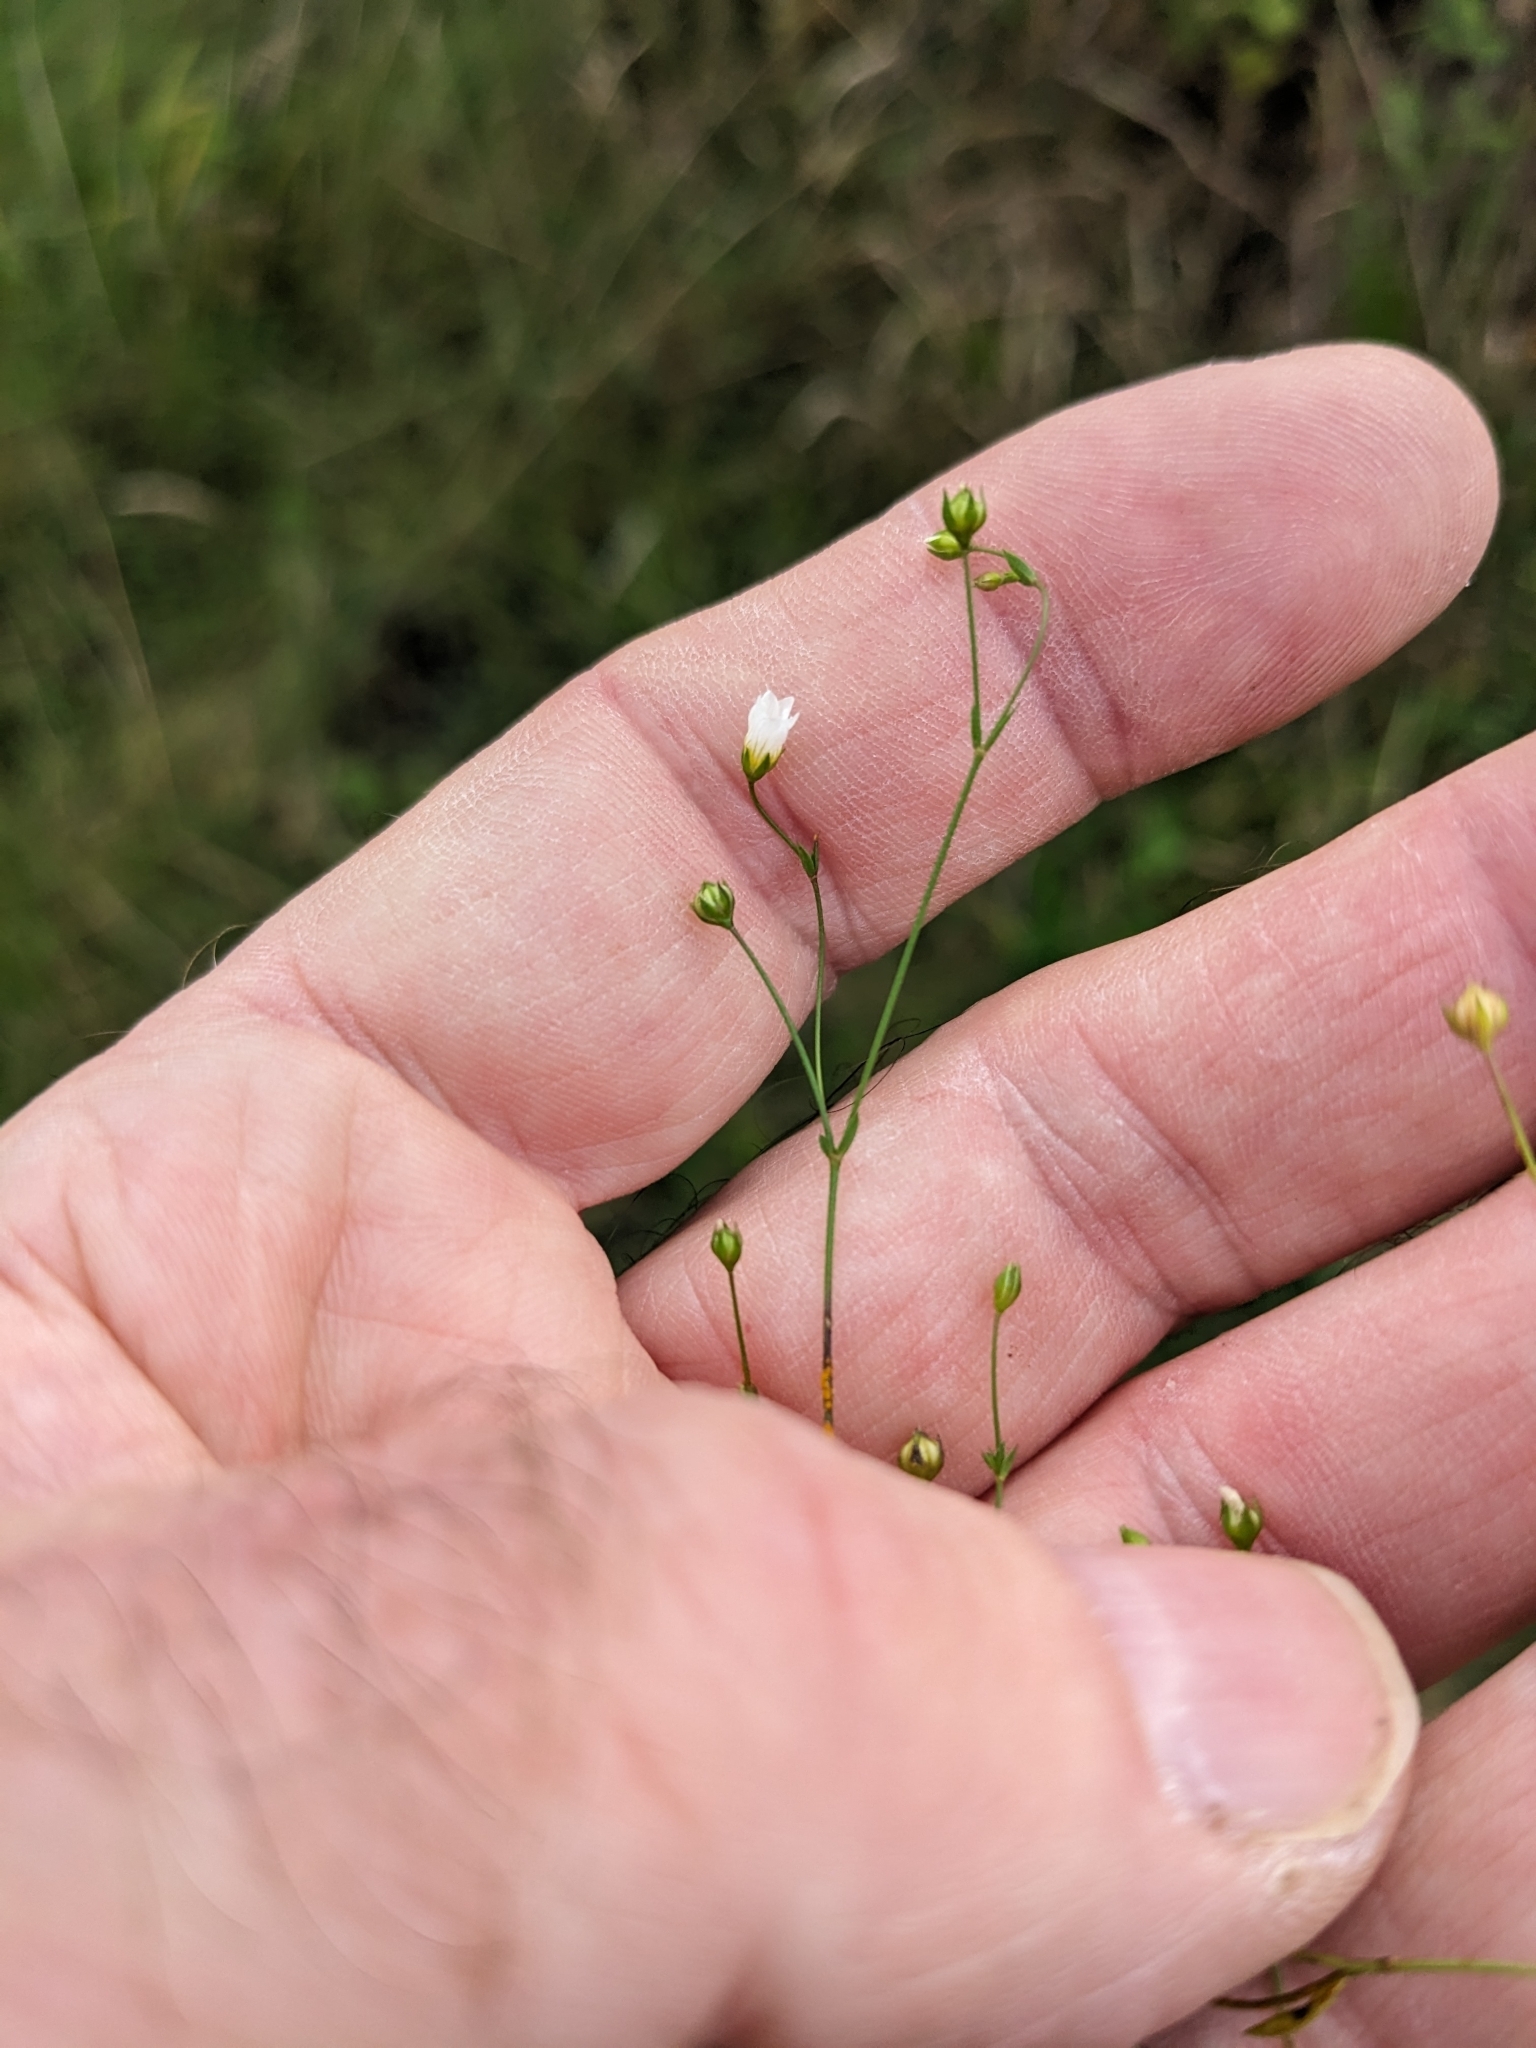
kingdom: Plantae
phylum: Tracheophyta
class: Magnoliopsida
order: Malpighiales
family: Linaceae
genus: Linum
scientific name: Linum catharticum
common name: Fairy flax
